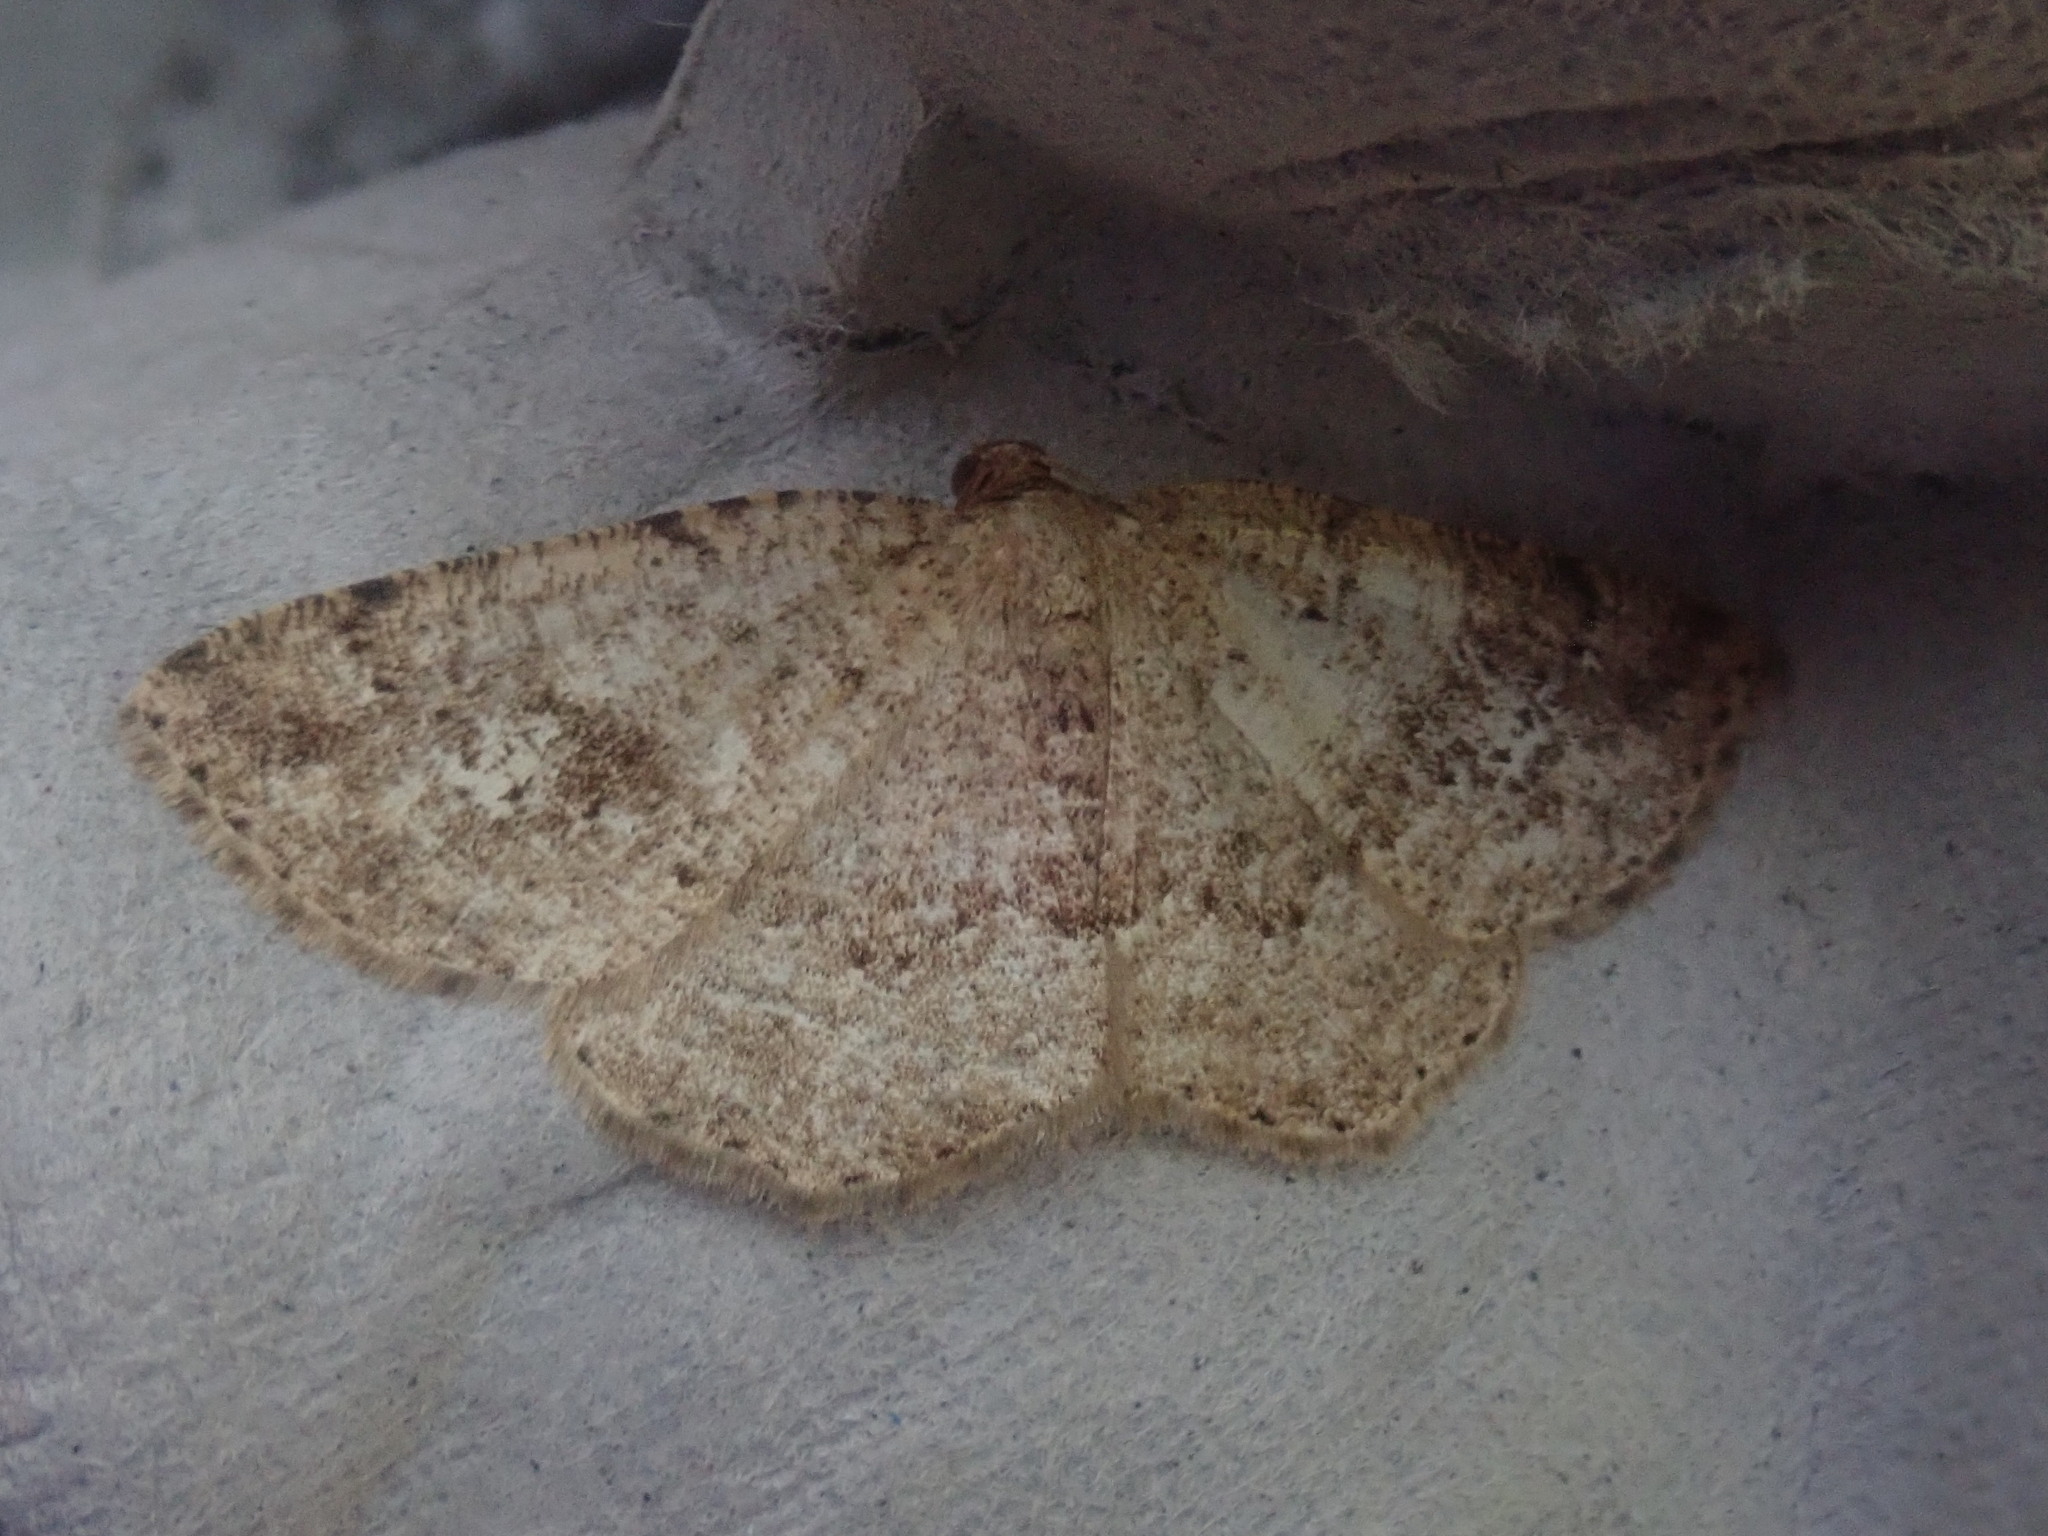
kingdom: Animalia
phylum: Arthropoda
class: Insecta
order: Lepidoptera
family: Geometridae
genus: Homochlodes
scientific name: Homochlodes fritillaria
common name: Pale homochlodes
